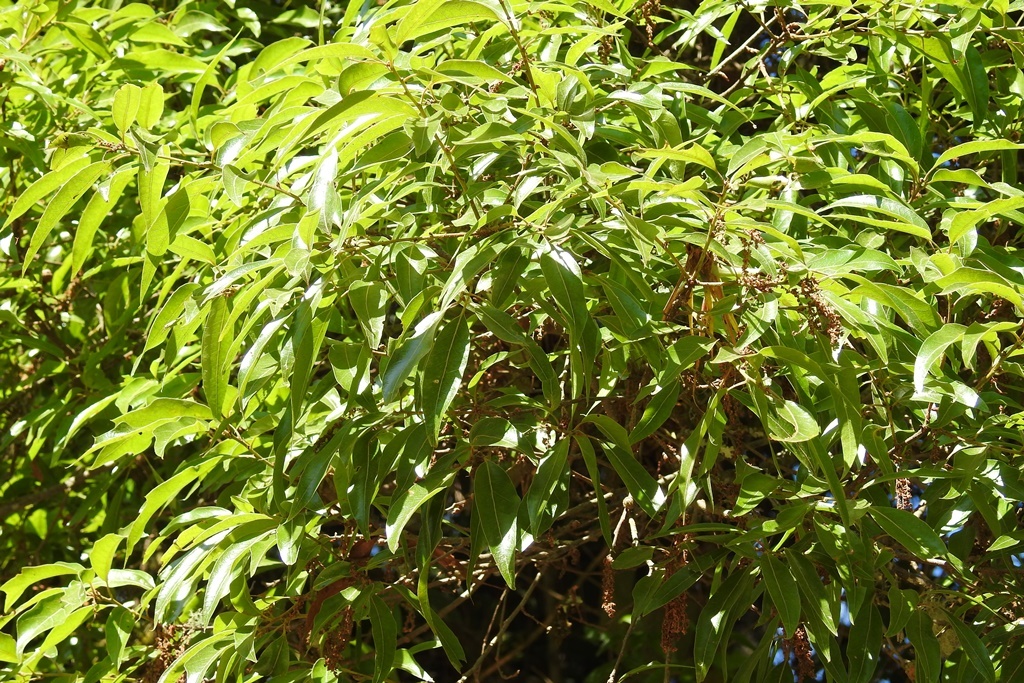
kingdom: Plantae
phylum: Tracheophyta
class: Magnoliopsida
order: Fagales
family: Fagaceae
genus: Quercus
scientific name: Quercus laurina
